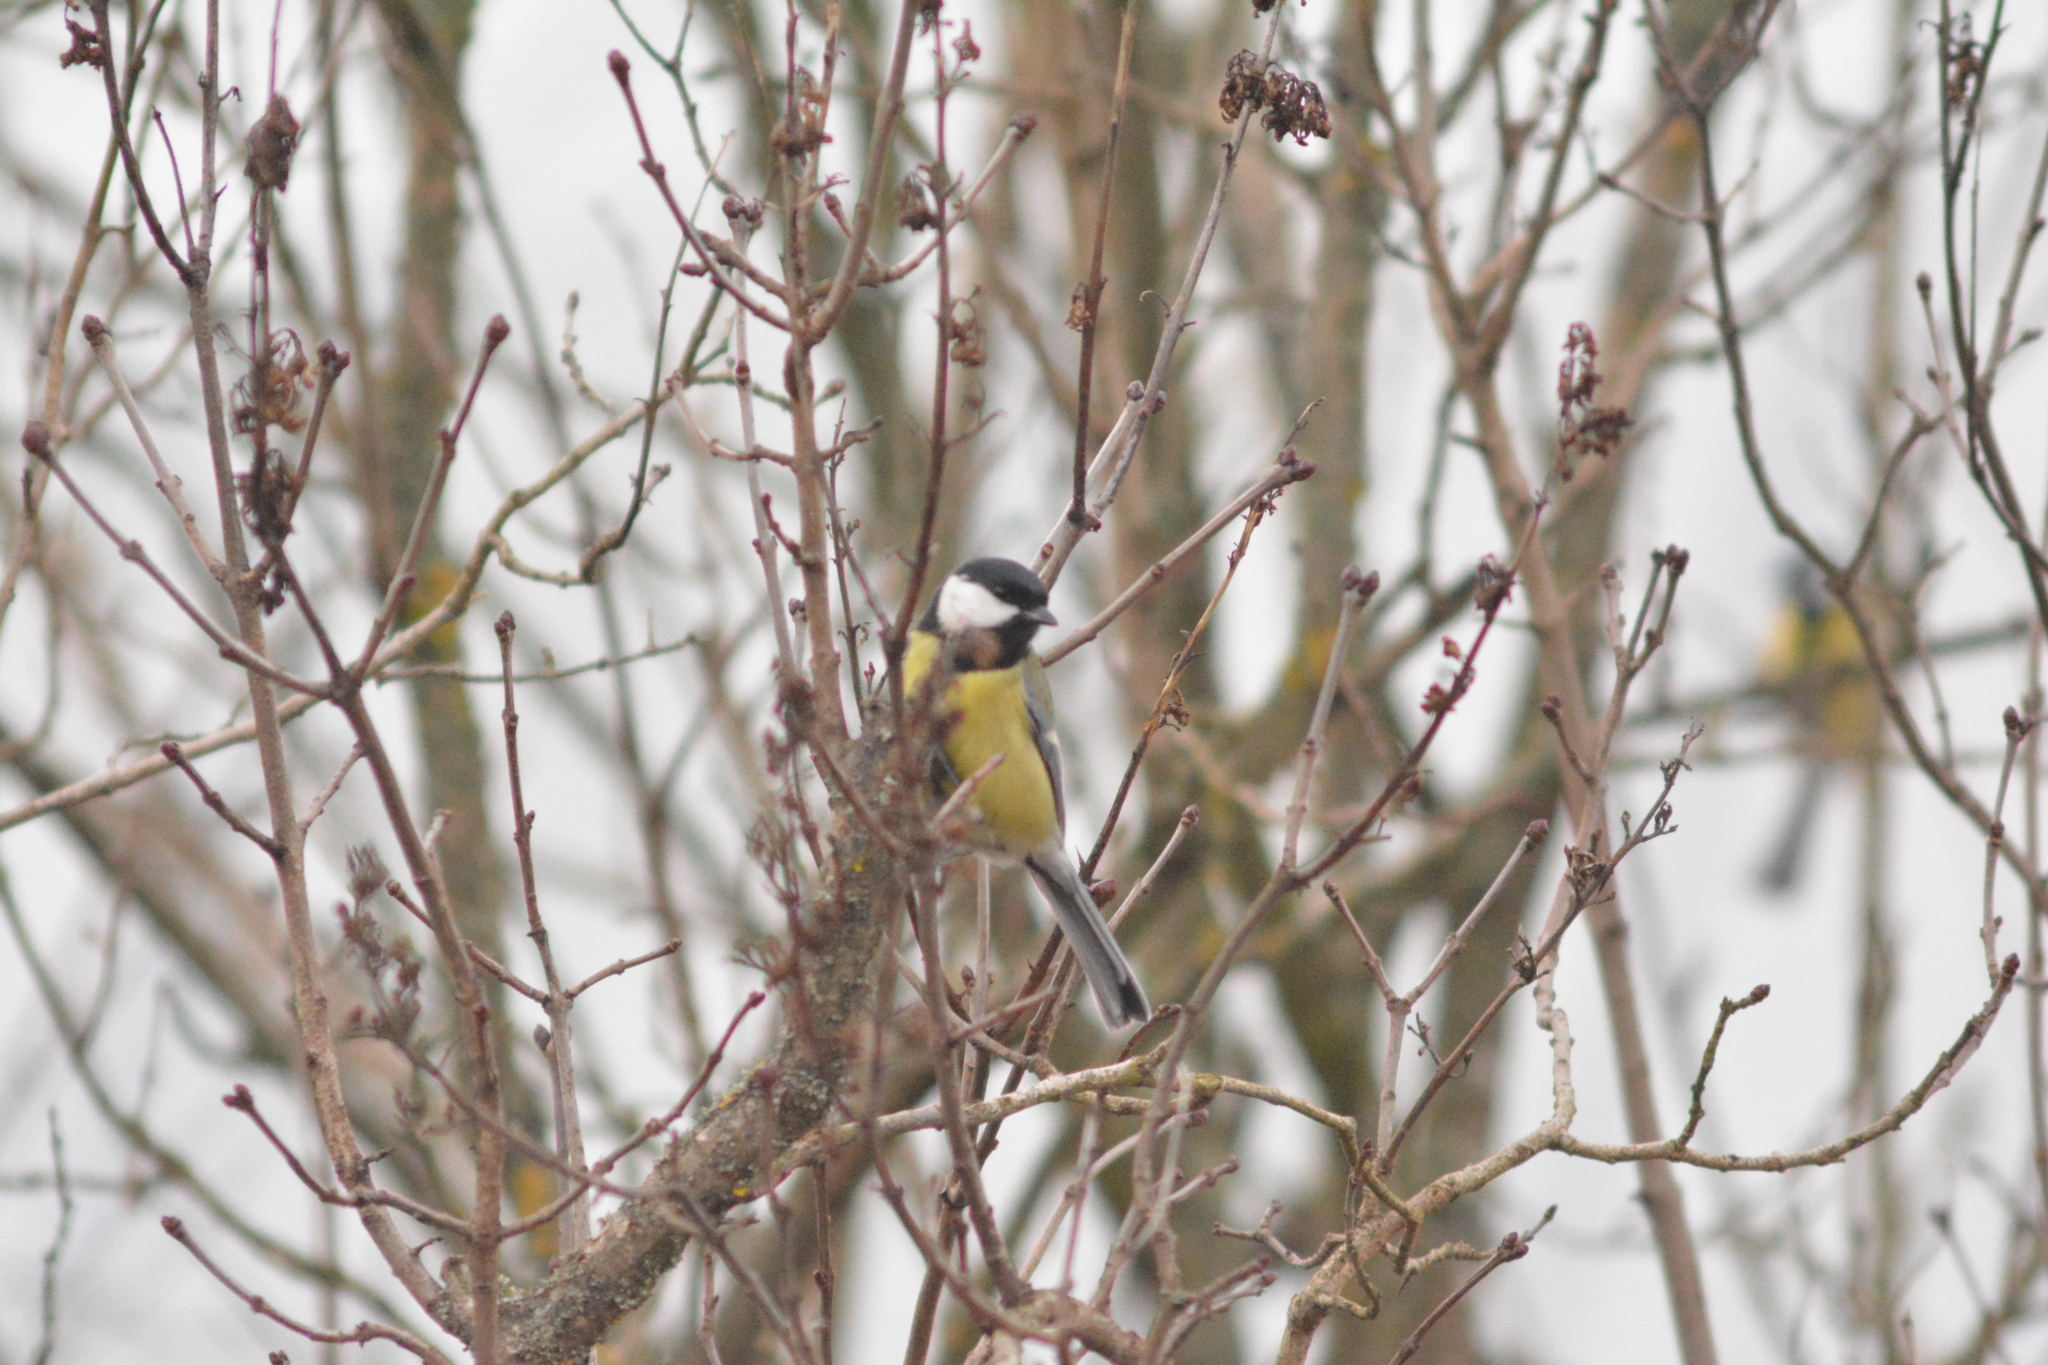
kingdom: Animalia
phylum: Chordata
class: Aves
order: Passeriformes
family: Paridae
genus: Parus
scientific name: Parus major
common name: Great tit
